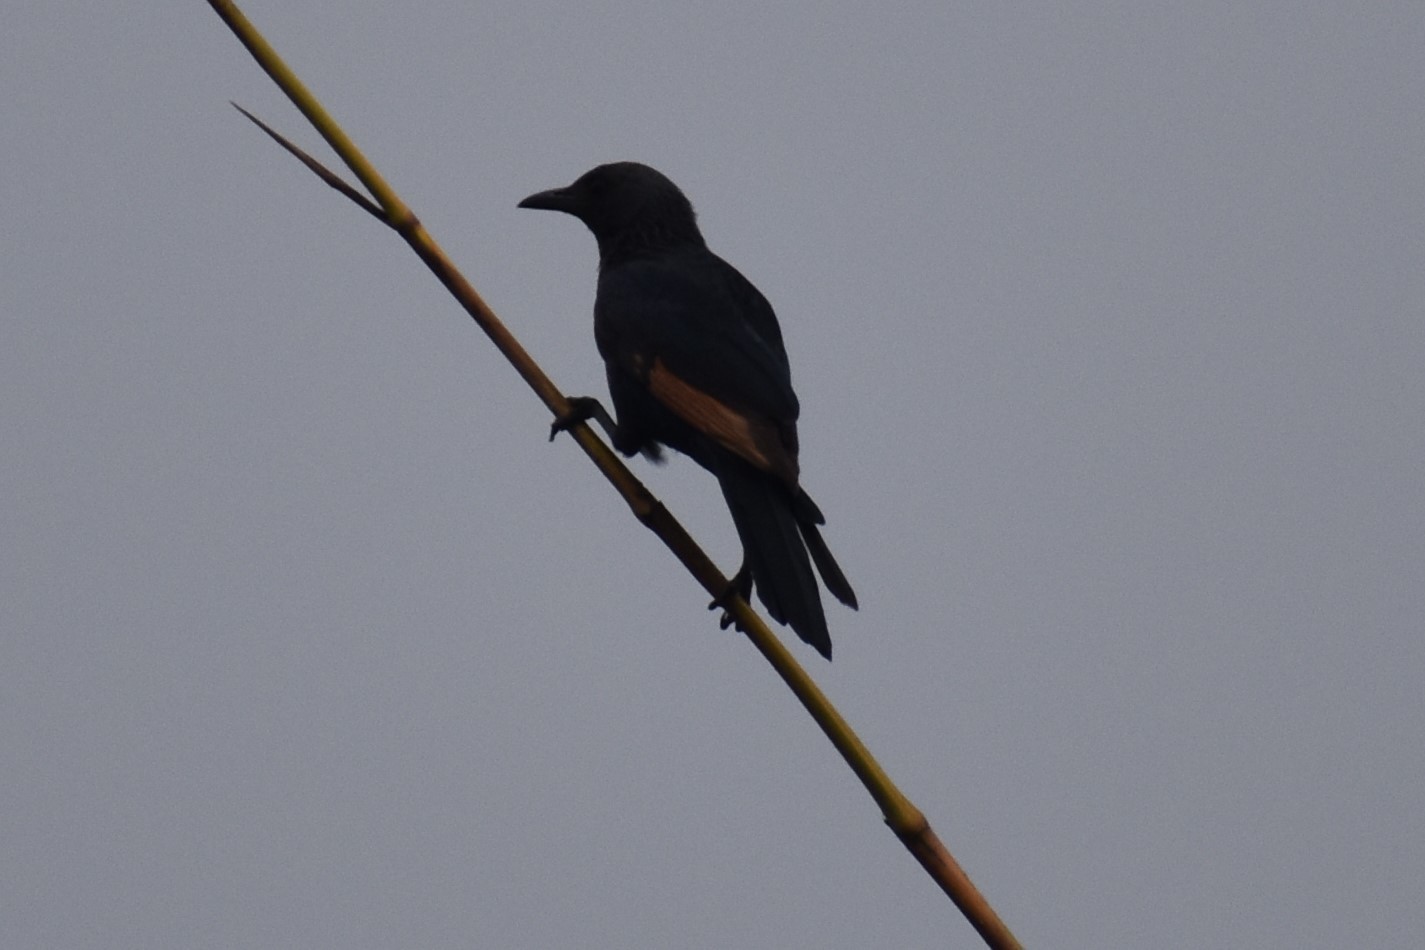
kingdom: Animalia
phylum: Chordata
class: Aves
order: Passeriformes
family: Sturnidae
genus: Onychognathus
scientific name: Onychognathus morio
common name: Red-winged starling
